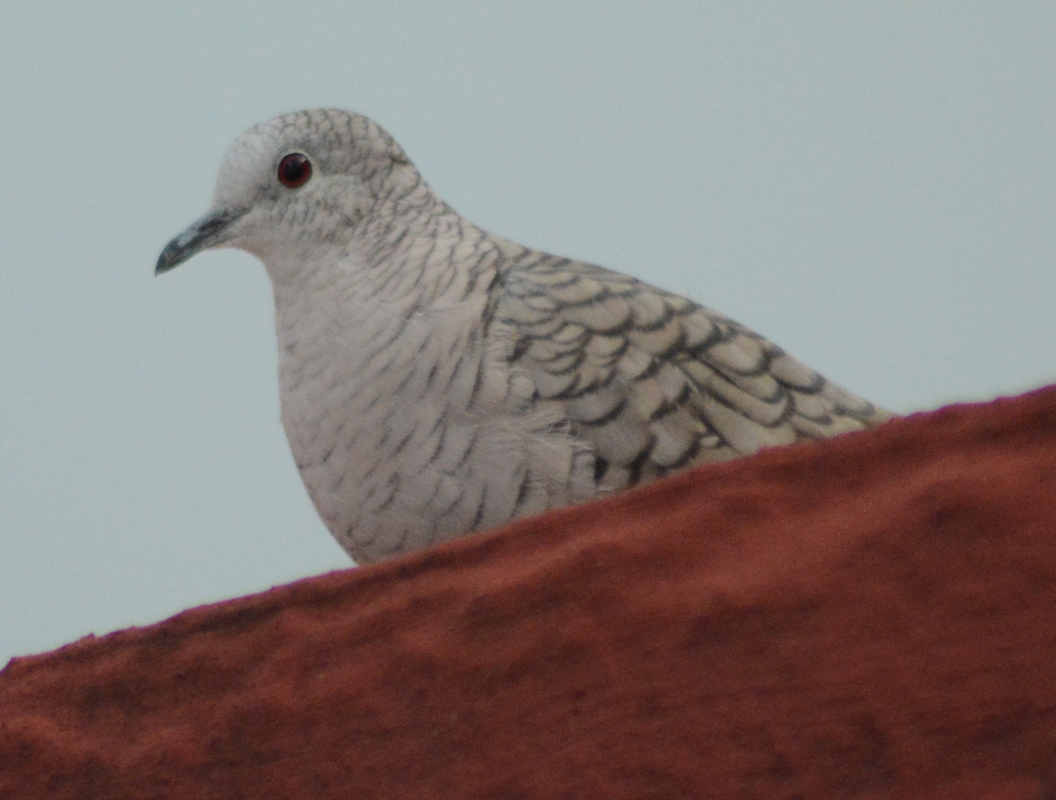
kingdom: Animalia
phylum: Chordata
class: Aves
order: Columbiformes
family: Columbidae
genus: Columbina
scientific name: Columbina inca
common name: Inca dove
